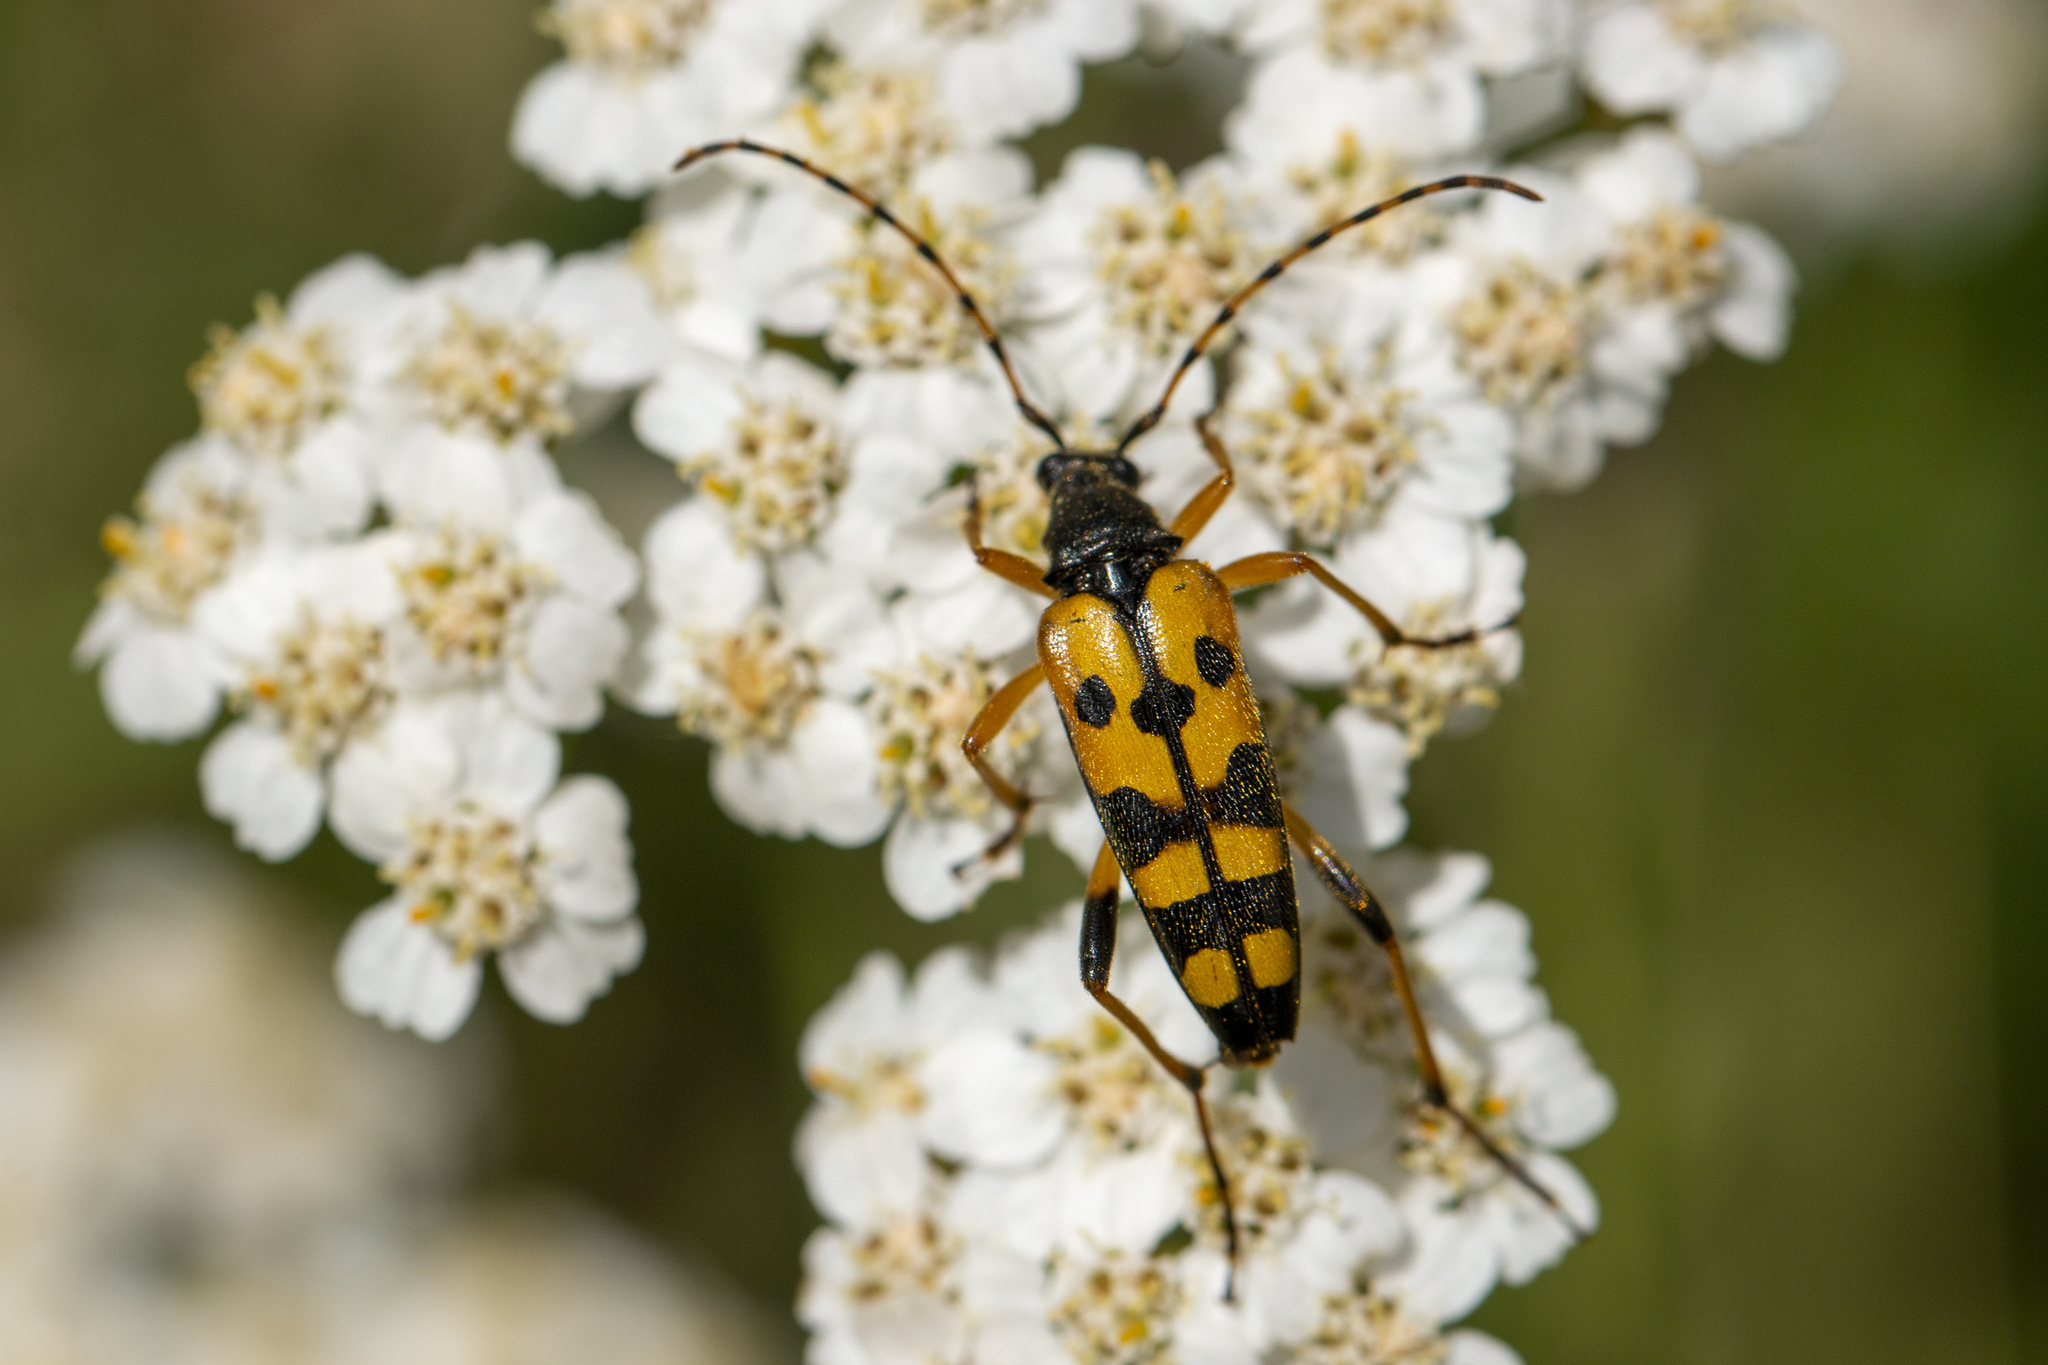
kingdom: Animalia
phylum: Arthropoda
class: Insecta
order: Coleoptera
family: Cerambycidae
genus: Rutpela
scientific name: Rutpela maculata
